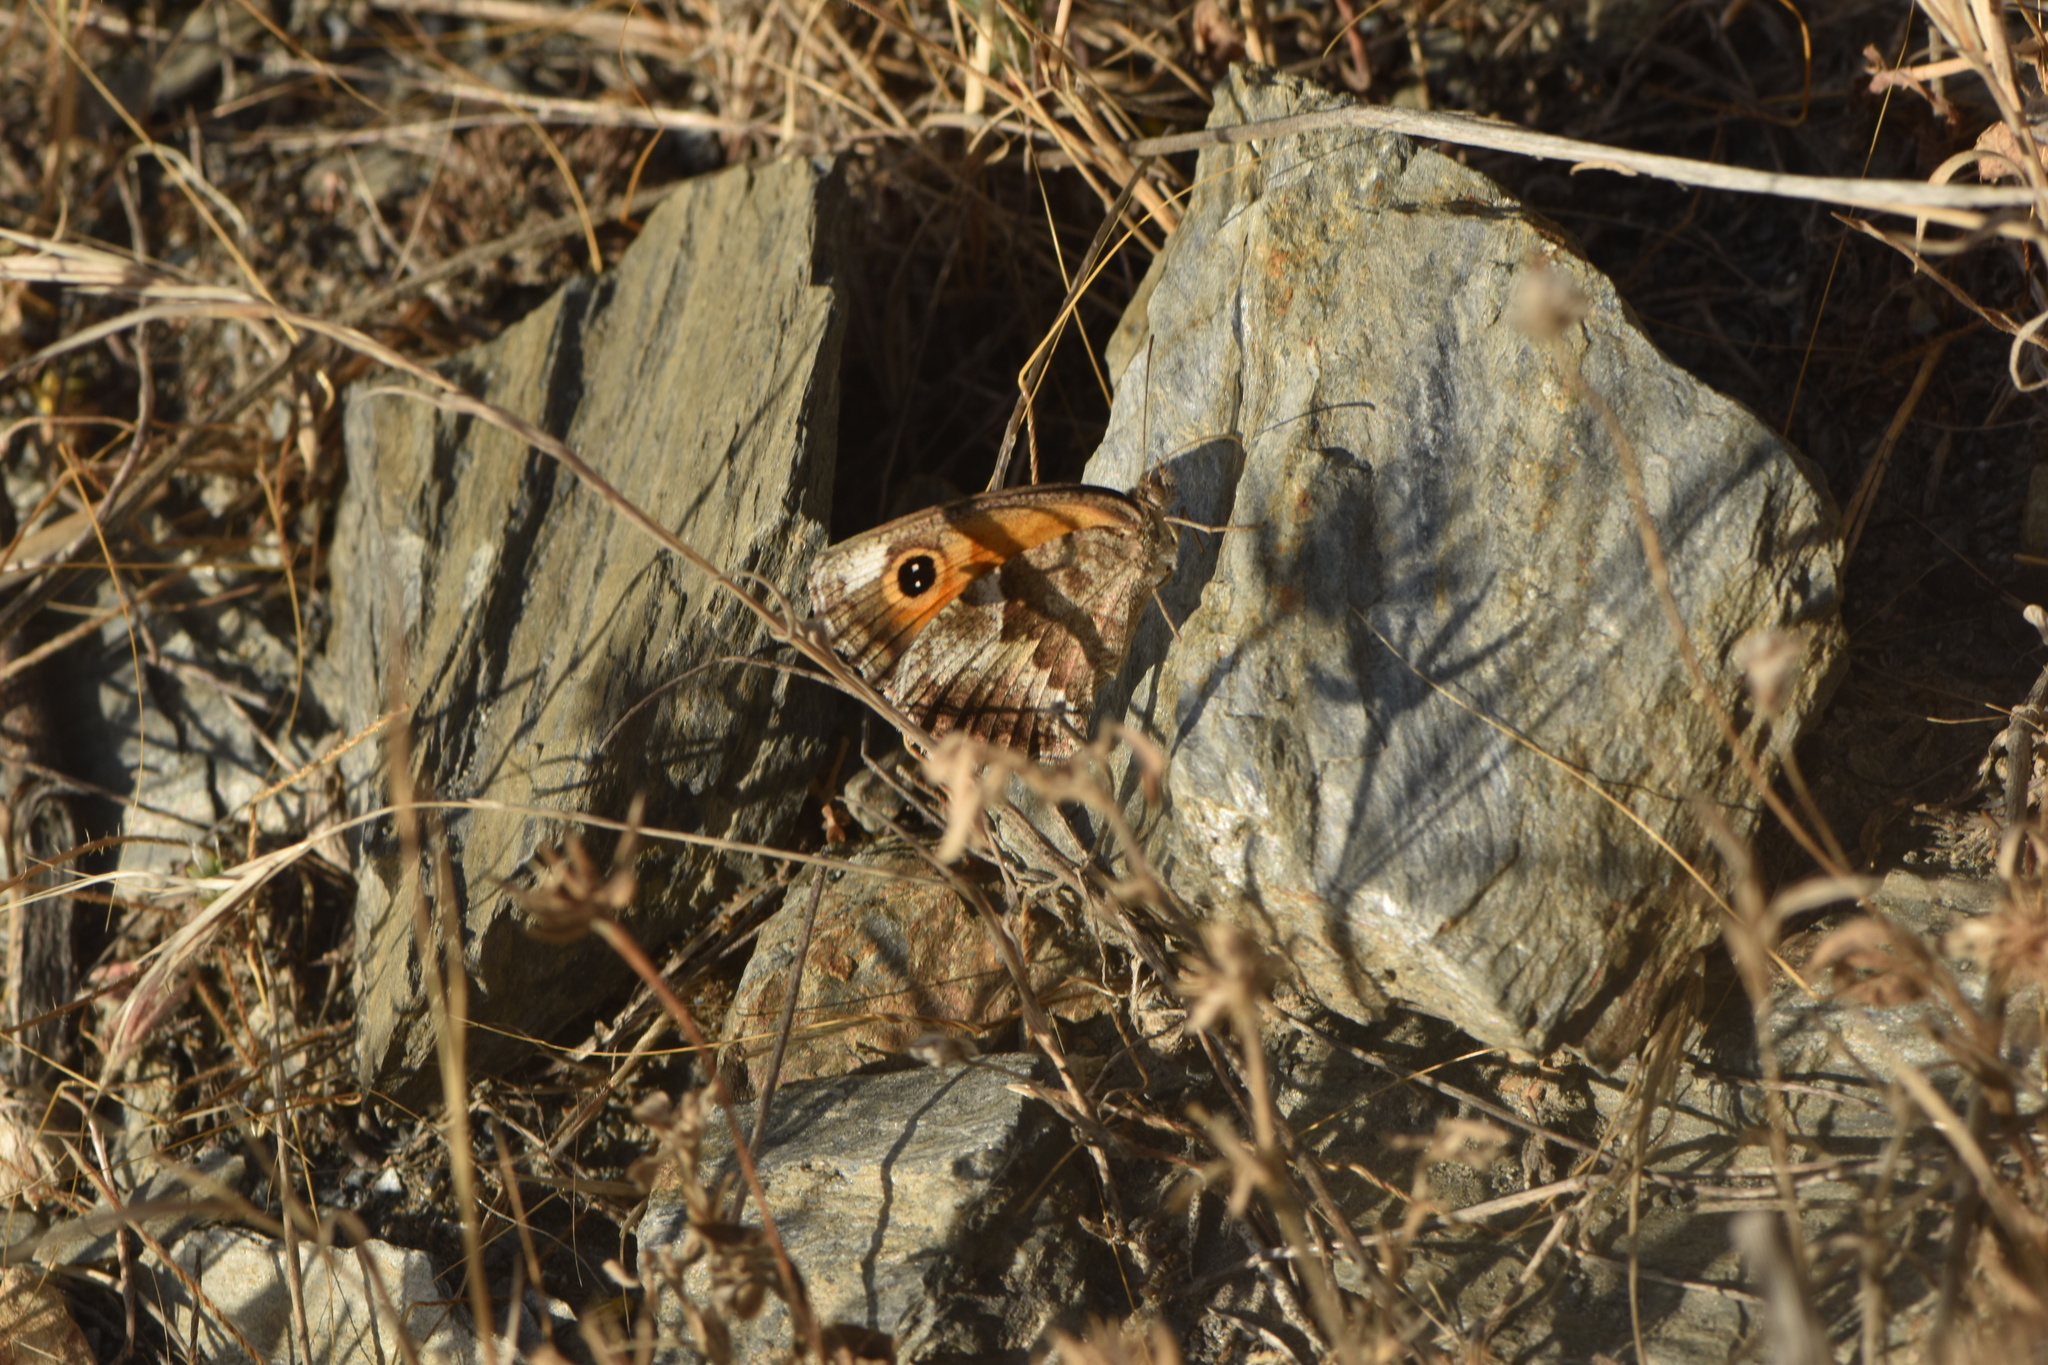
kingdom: Animalia
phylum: Arthropoda
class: Insecta
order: Lepidoptera
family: Nymphalidae
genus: Pyronia
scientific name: Pyronia cecilia
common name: Southern gatekeeper
